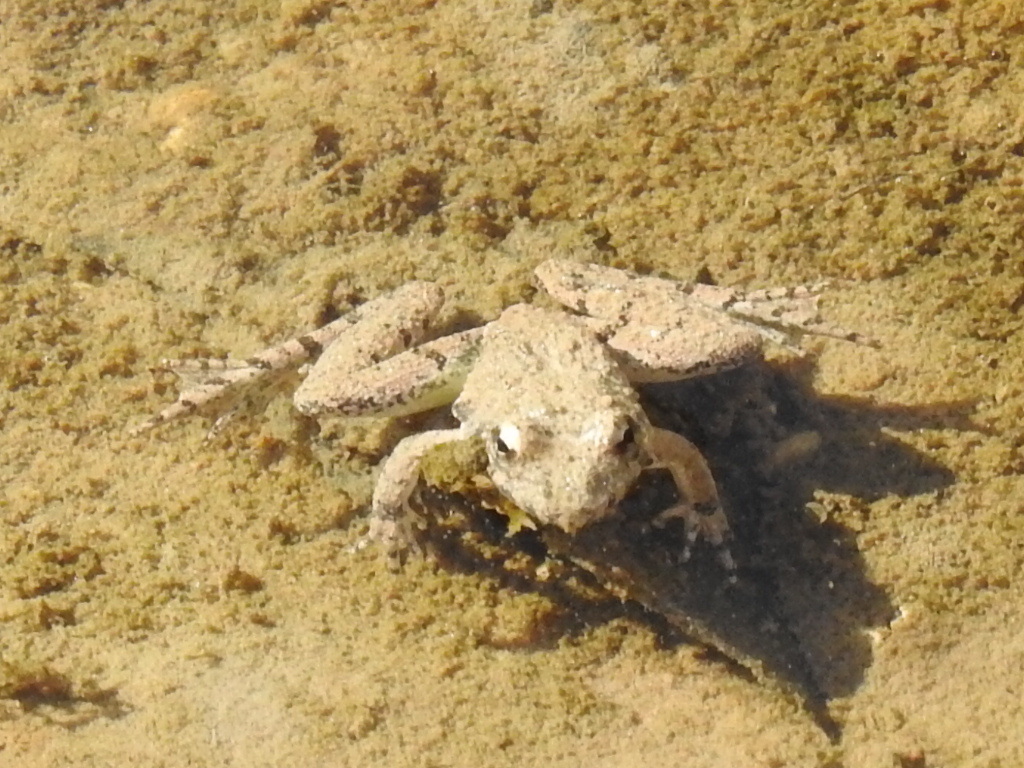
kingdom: Animalia
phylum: Chordata
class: Amphibia
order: Anura
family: Hylidae
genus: Acris
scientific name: Acris blanchardi
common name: Blanchard's cricket frog
